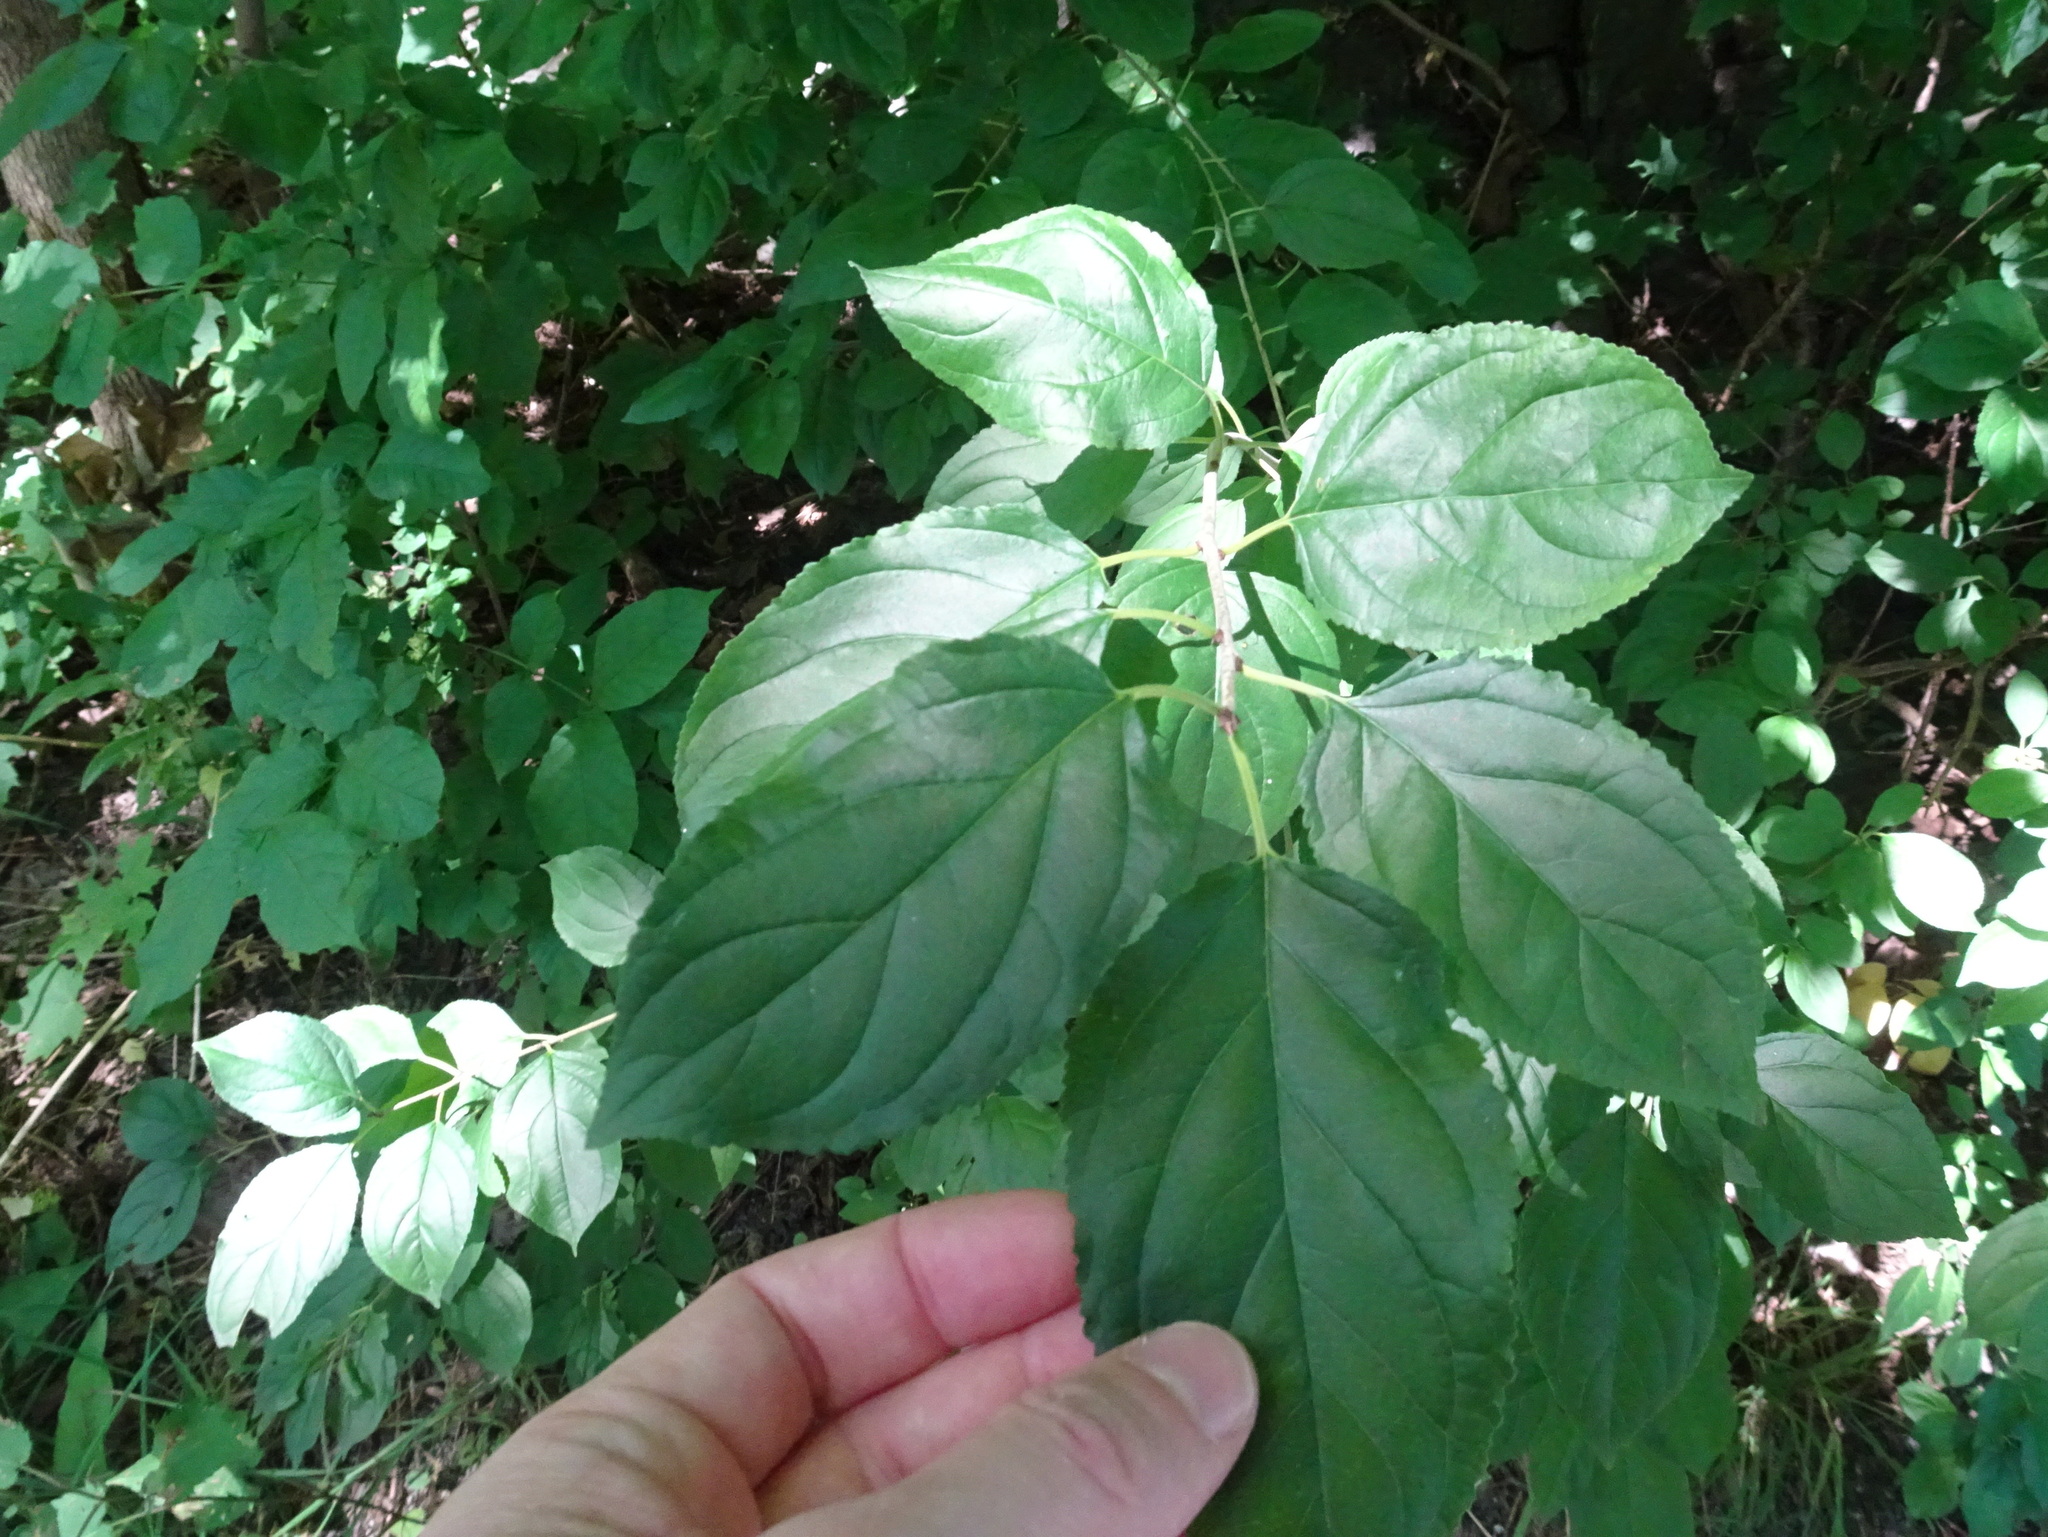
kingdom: Plantae
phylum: Tracheophyta
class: Magnoliopsida
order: Rosales
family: Rhamnaceae
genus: Rhamnus
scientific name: Rhamnus cathartica
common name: Common buckthorn
